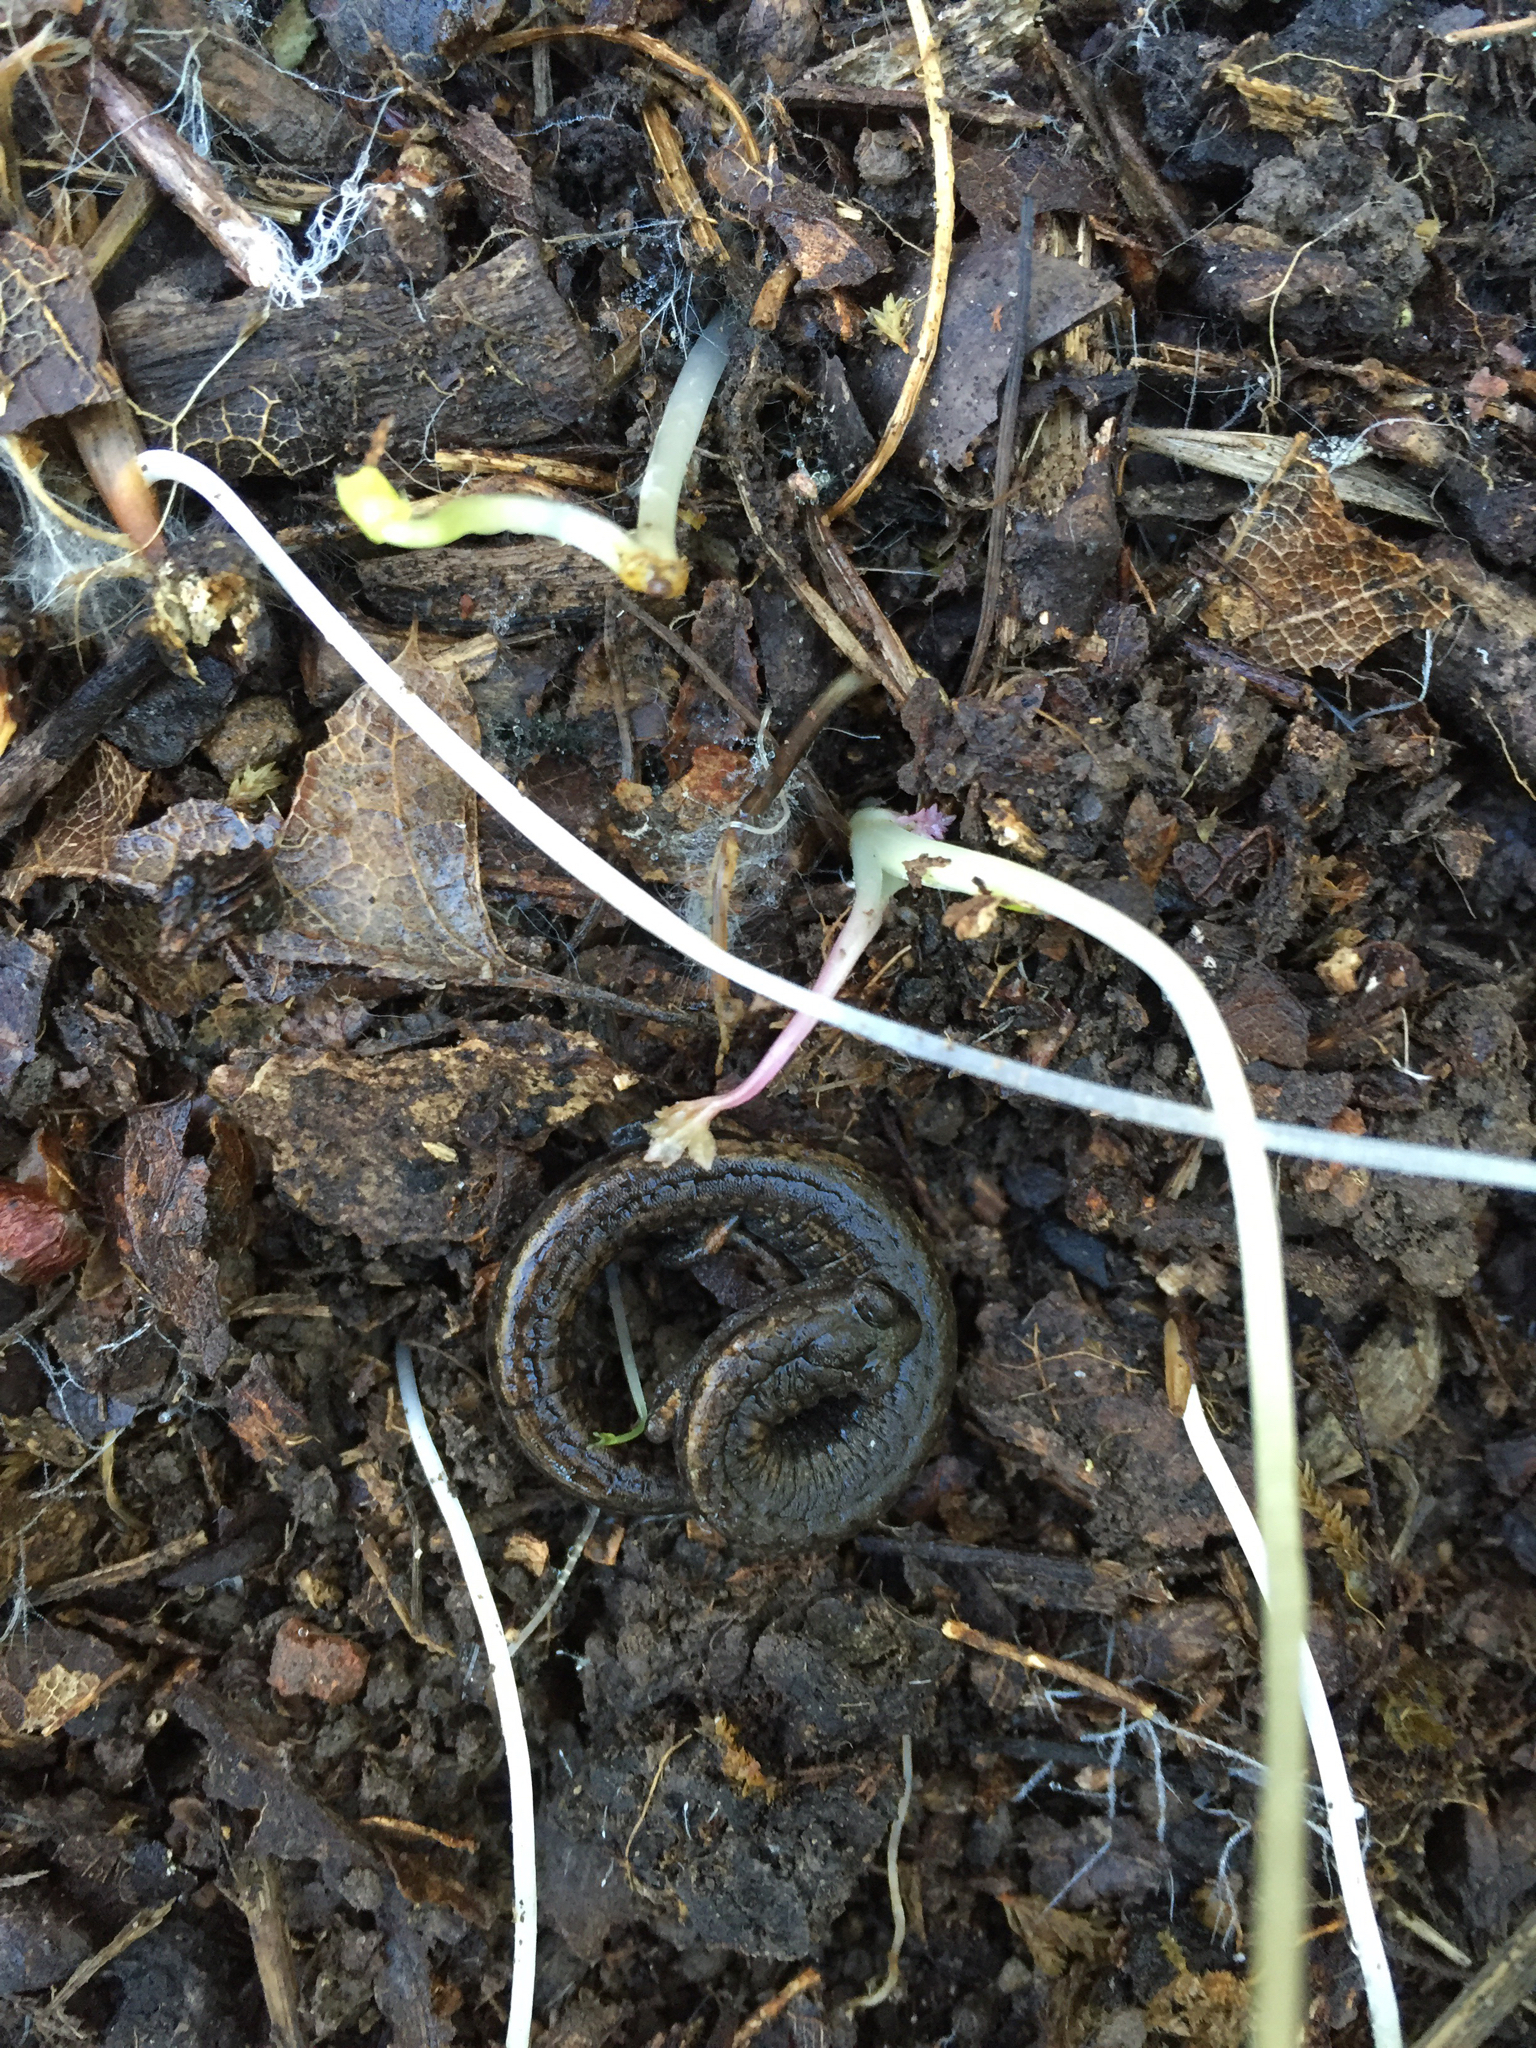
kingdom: Animalia
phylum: Chordata
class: Amphibia
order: Caudata
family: Plethodontidae
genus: Batrachoseps
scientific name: Batrachoseps attenuatus
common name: California slender salamander
